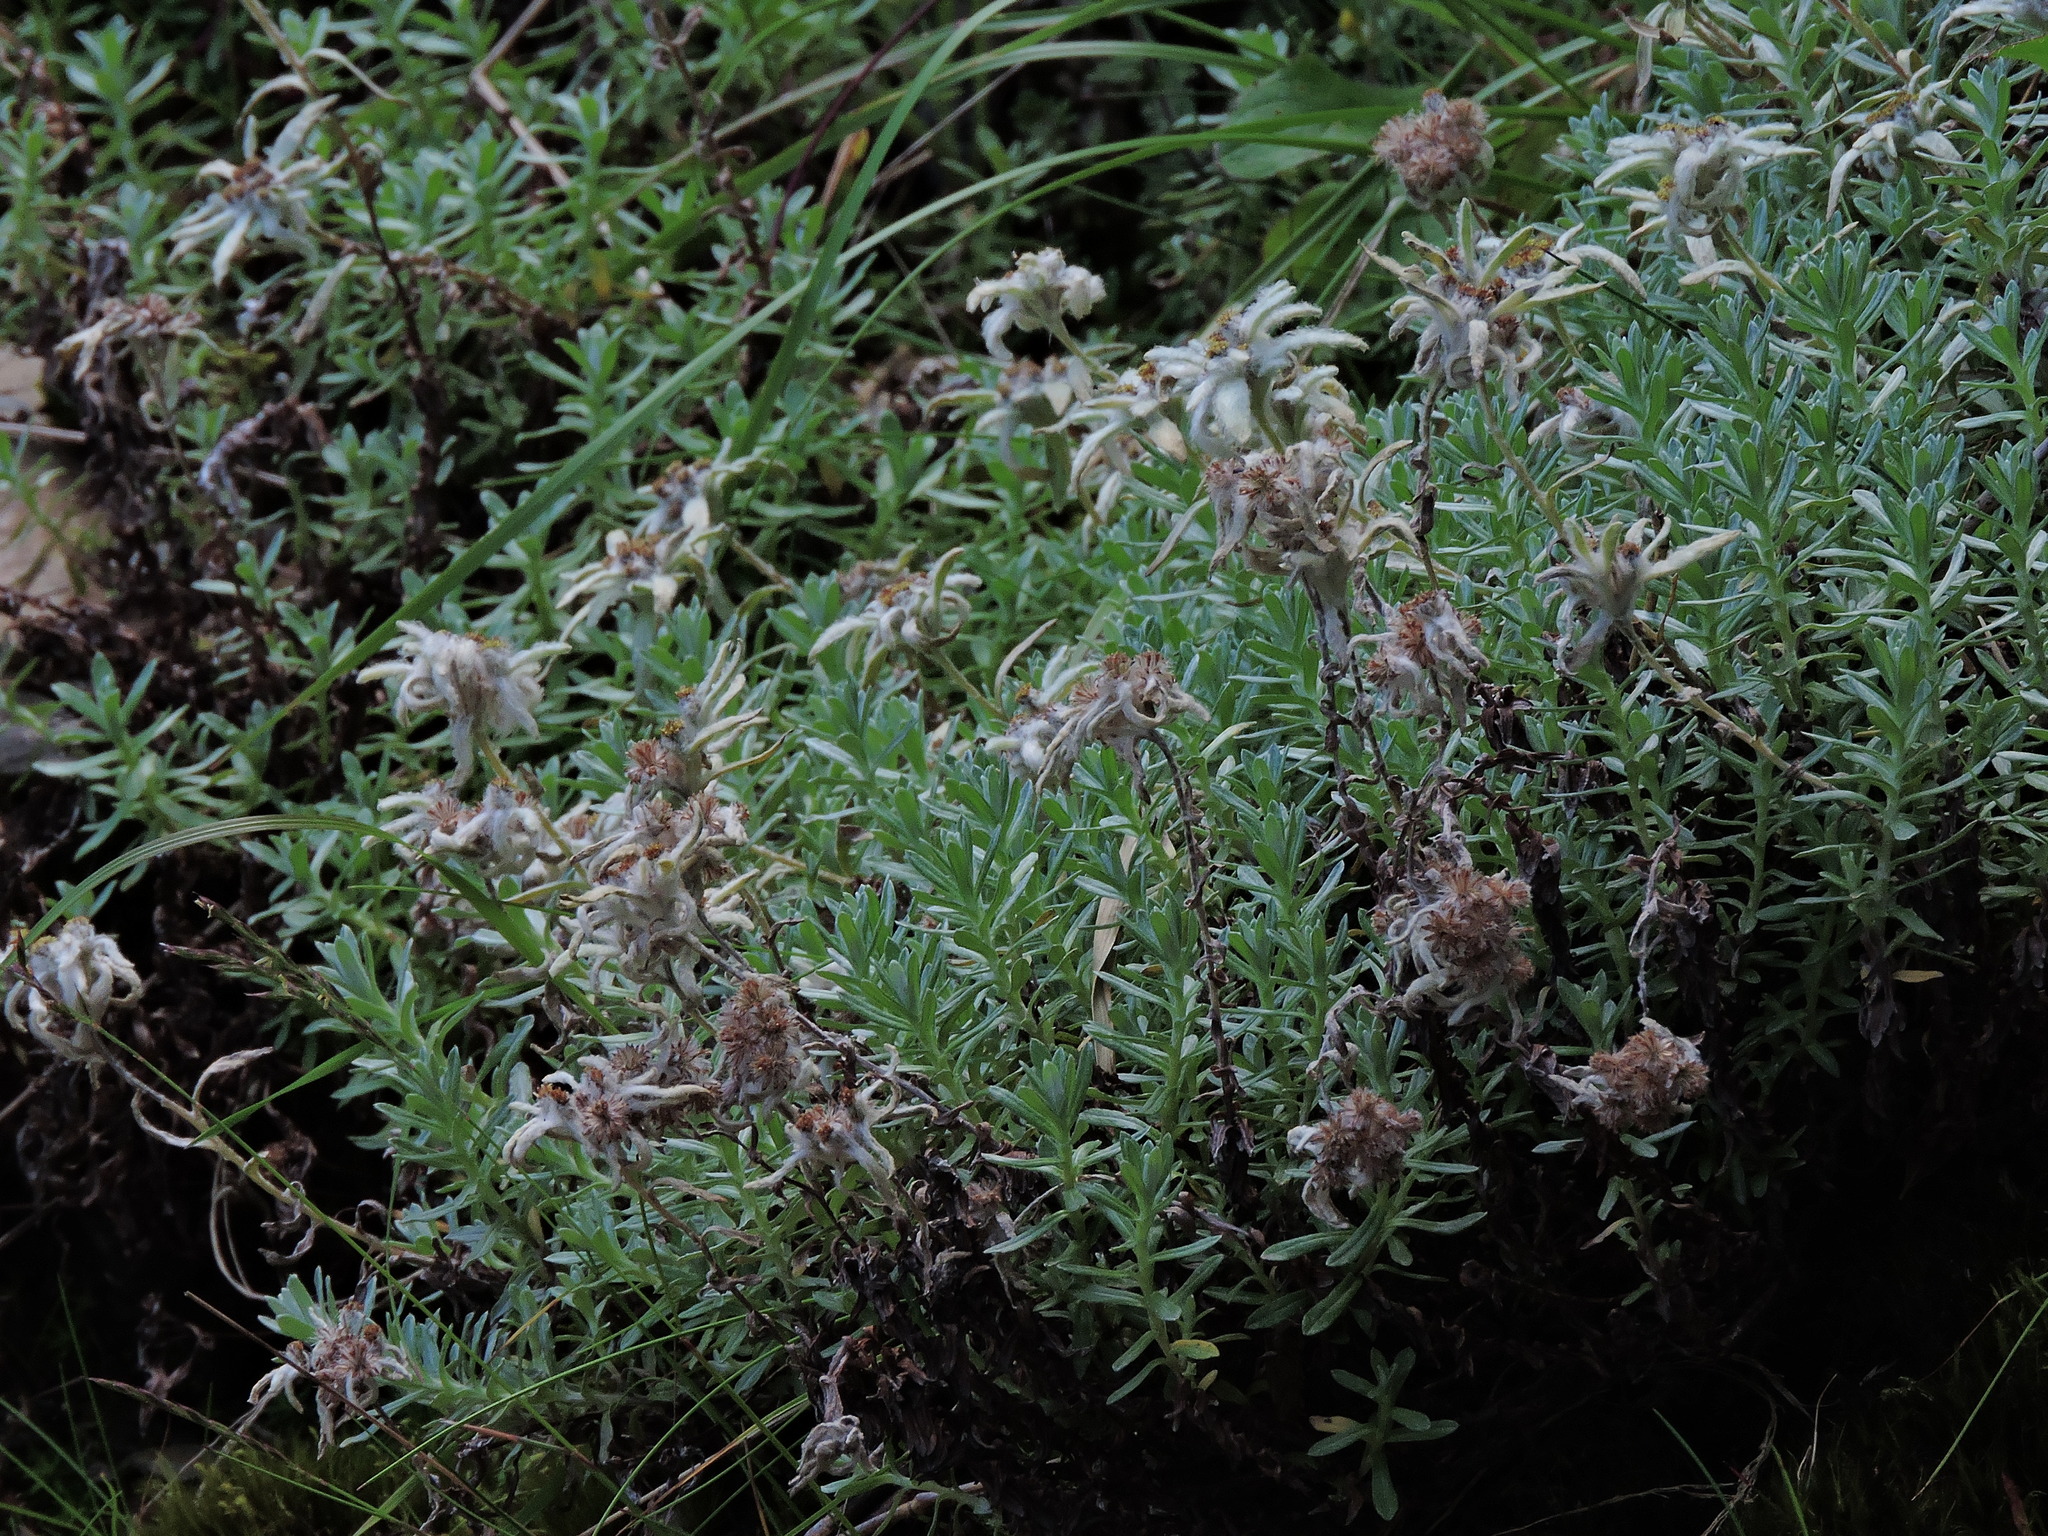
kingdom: Plantae
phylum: Tracheophyta
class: Magnoliopsida
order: Asterales
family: Asteraceae
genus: Leontopodium
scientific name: Leontopodium microphyllum
